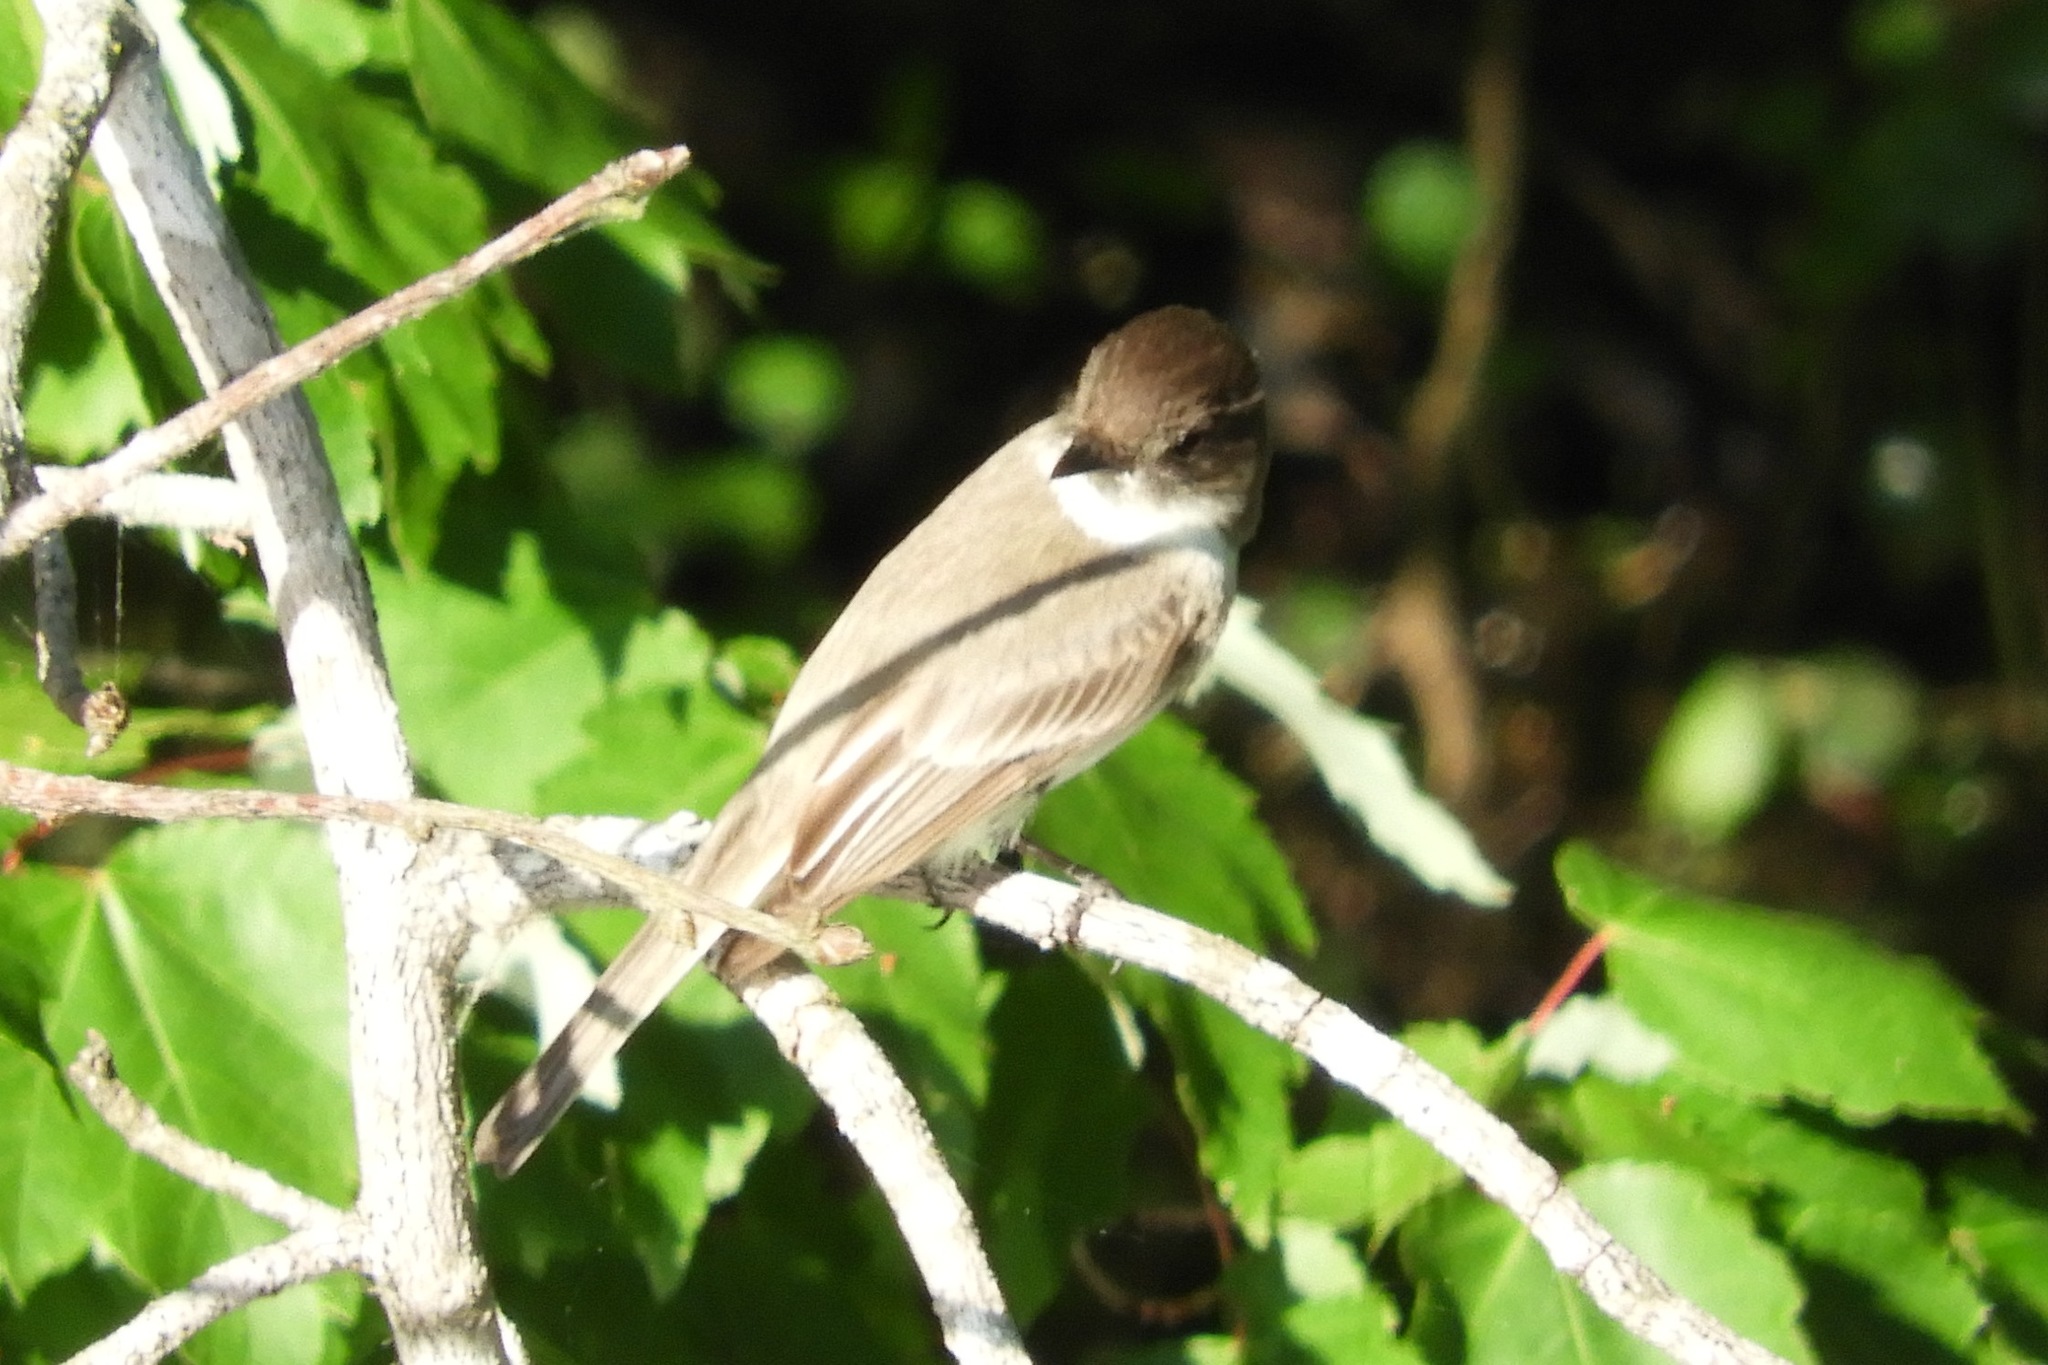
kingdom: Animalia
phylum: Chordata
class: Aves
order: Passeriformes
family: Tyrannidae
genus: Sayornis
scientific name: Sayornis phoebe
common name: Eastern phoebe
